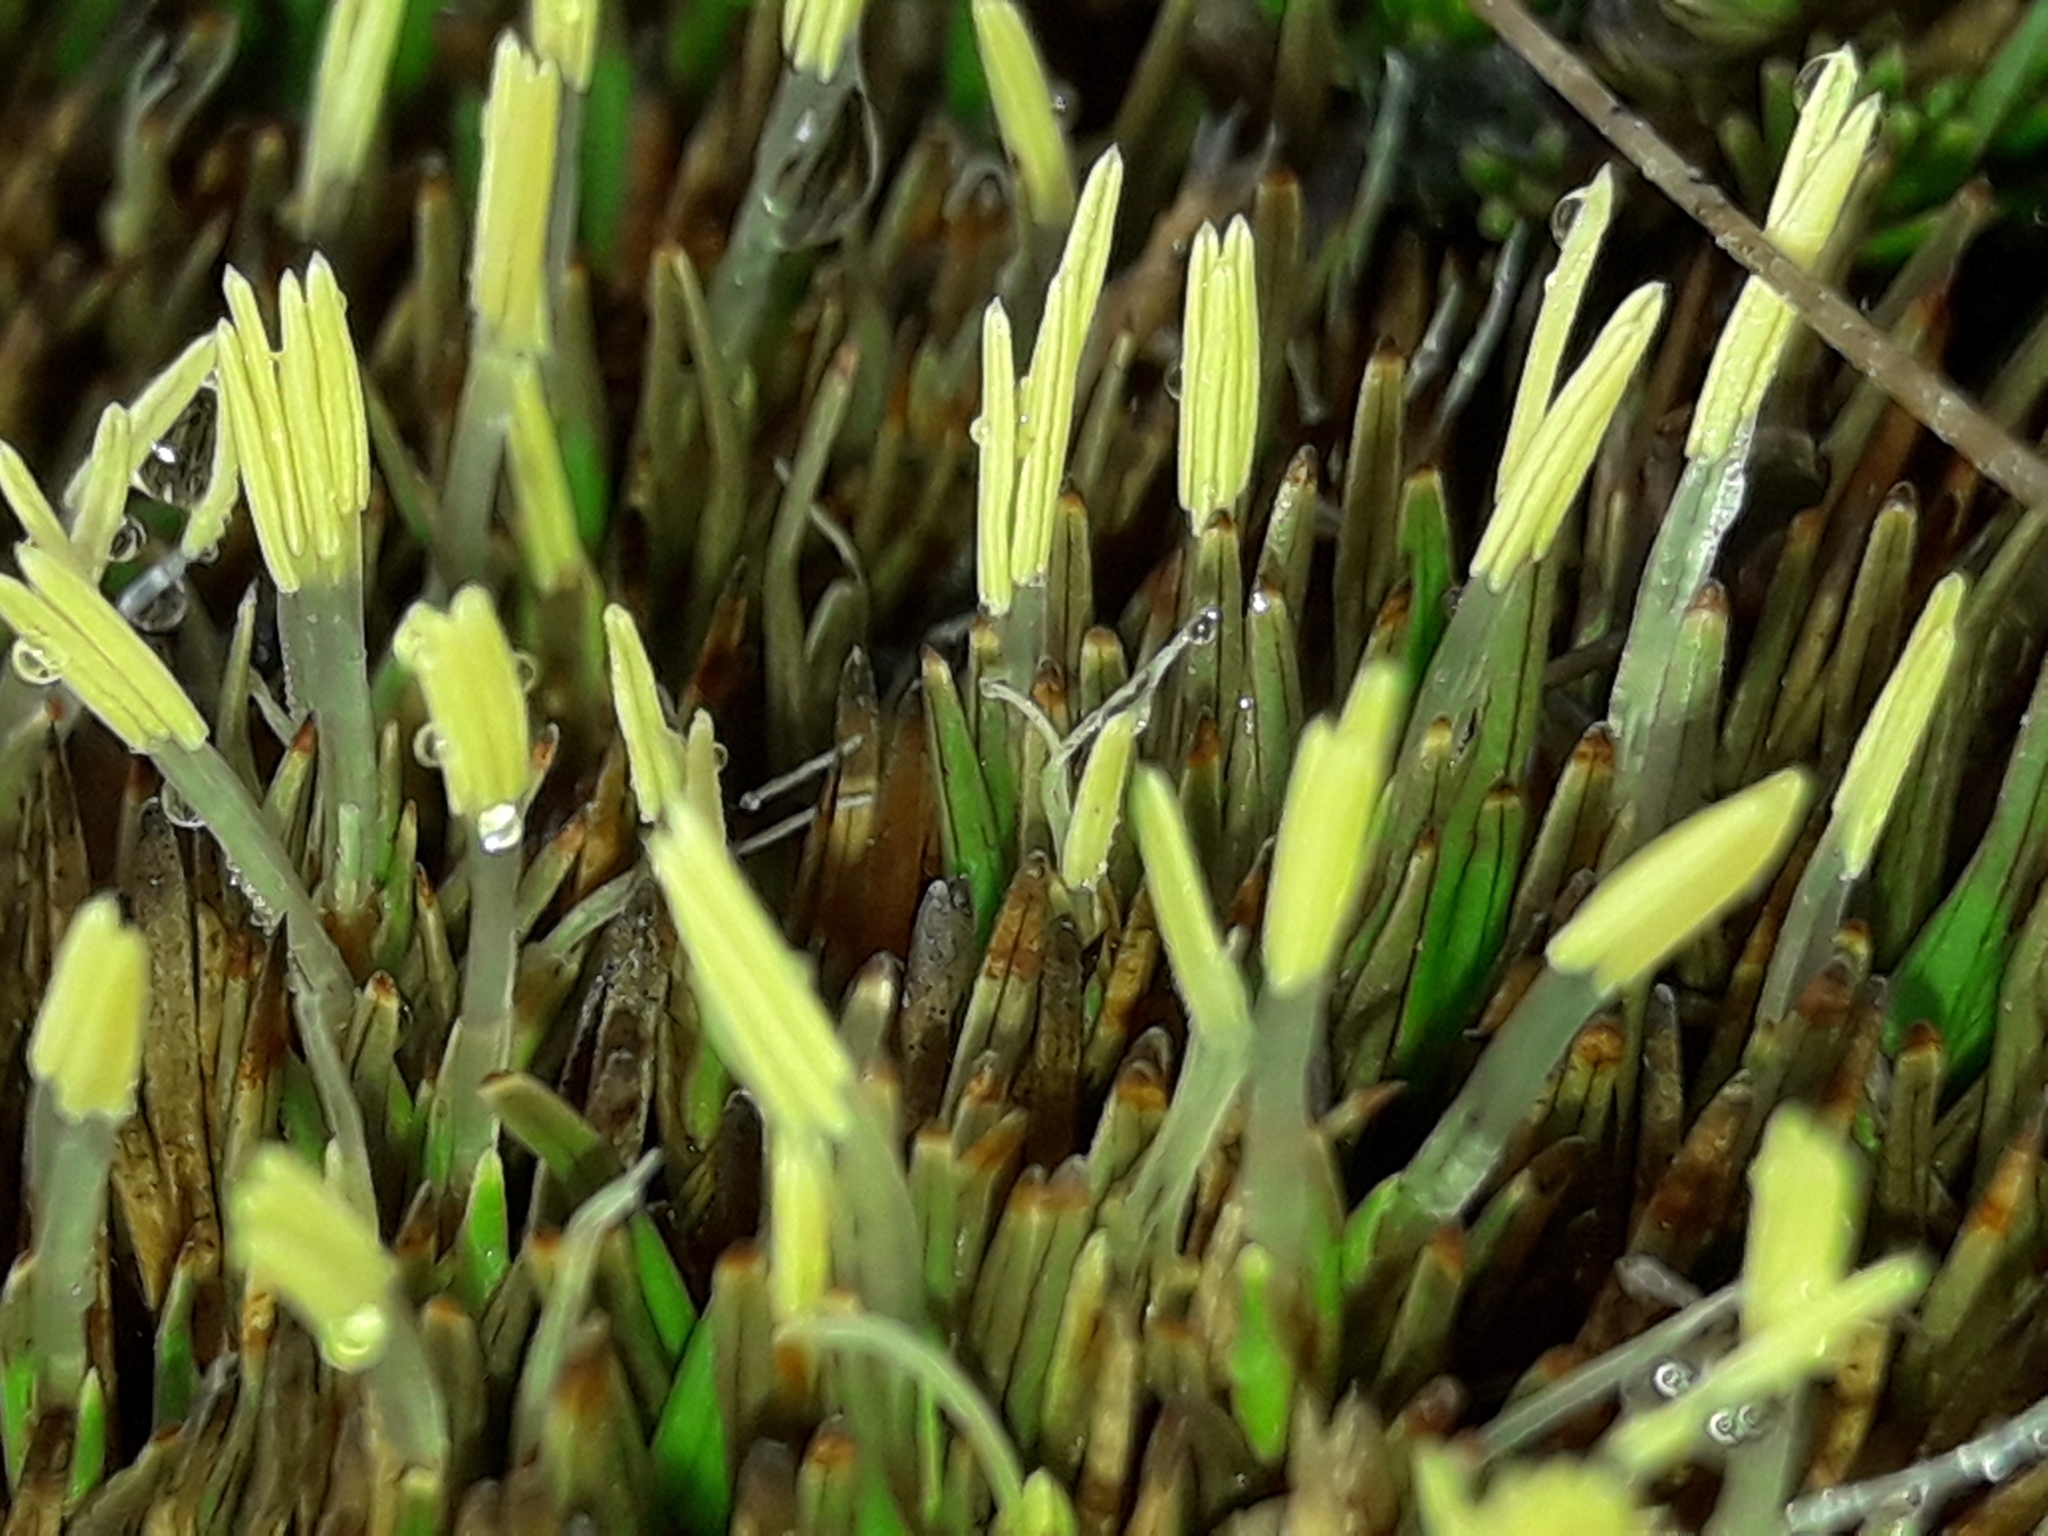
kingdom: Plantae
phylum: Tracheophyta
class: Liliopsida
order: Poales
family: Cyperaceae
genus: Oreobolus
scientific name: Oreobolus pectinatus
